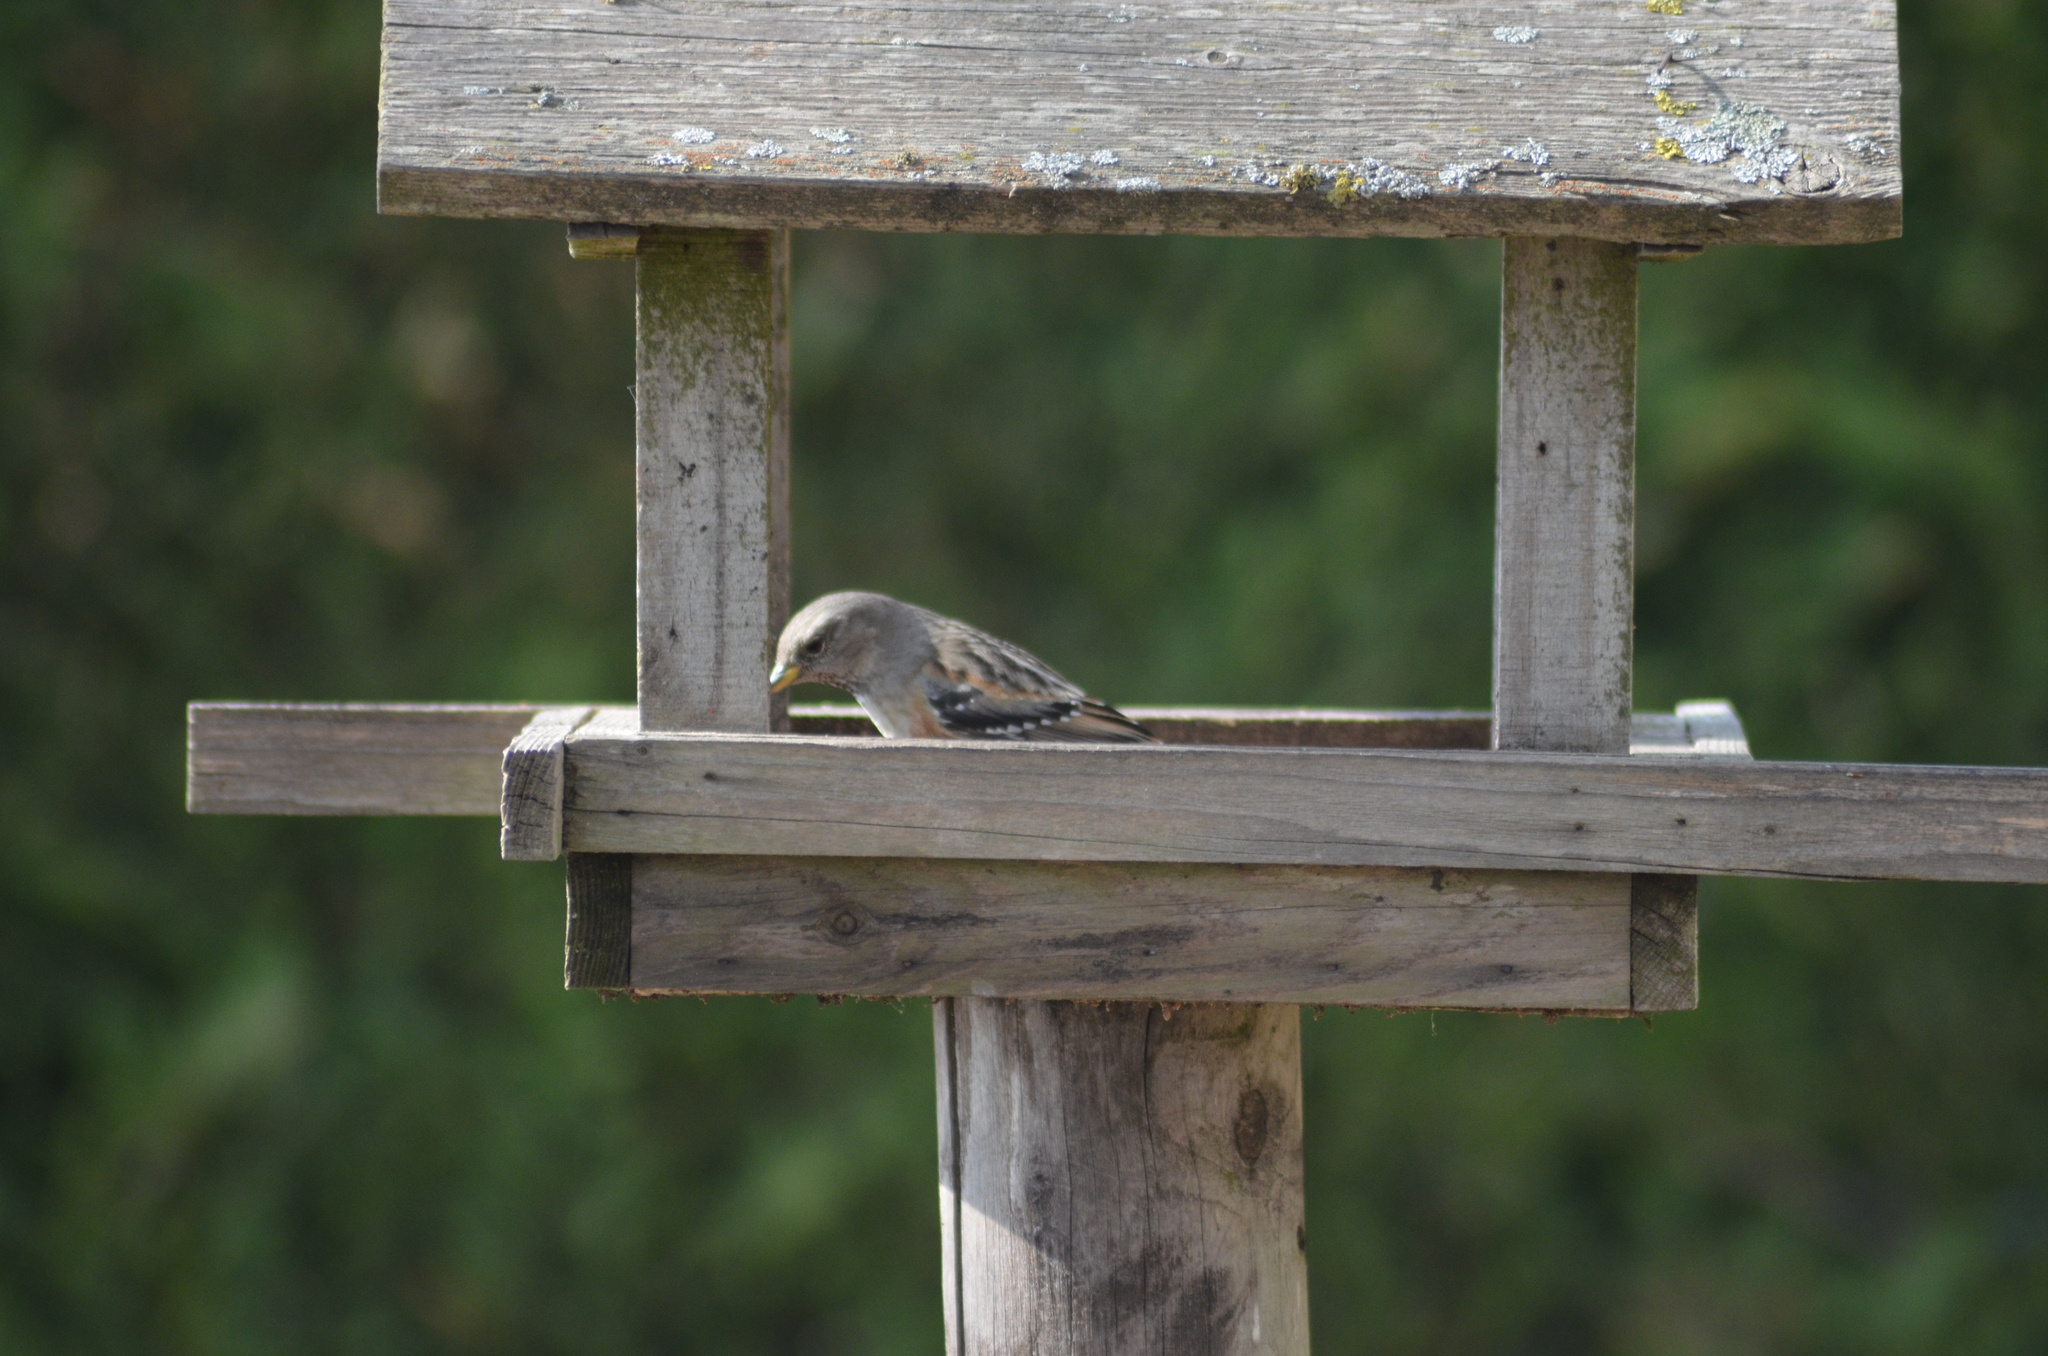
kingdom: Animalia
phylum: Chordata
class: Aves
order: Passeriformes
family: Prunellidae
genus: Prunella
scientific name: Prunella collaris
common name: Alpine accentor
